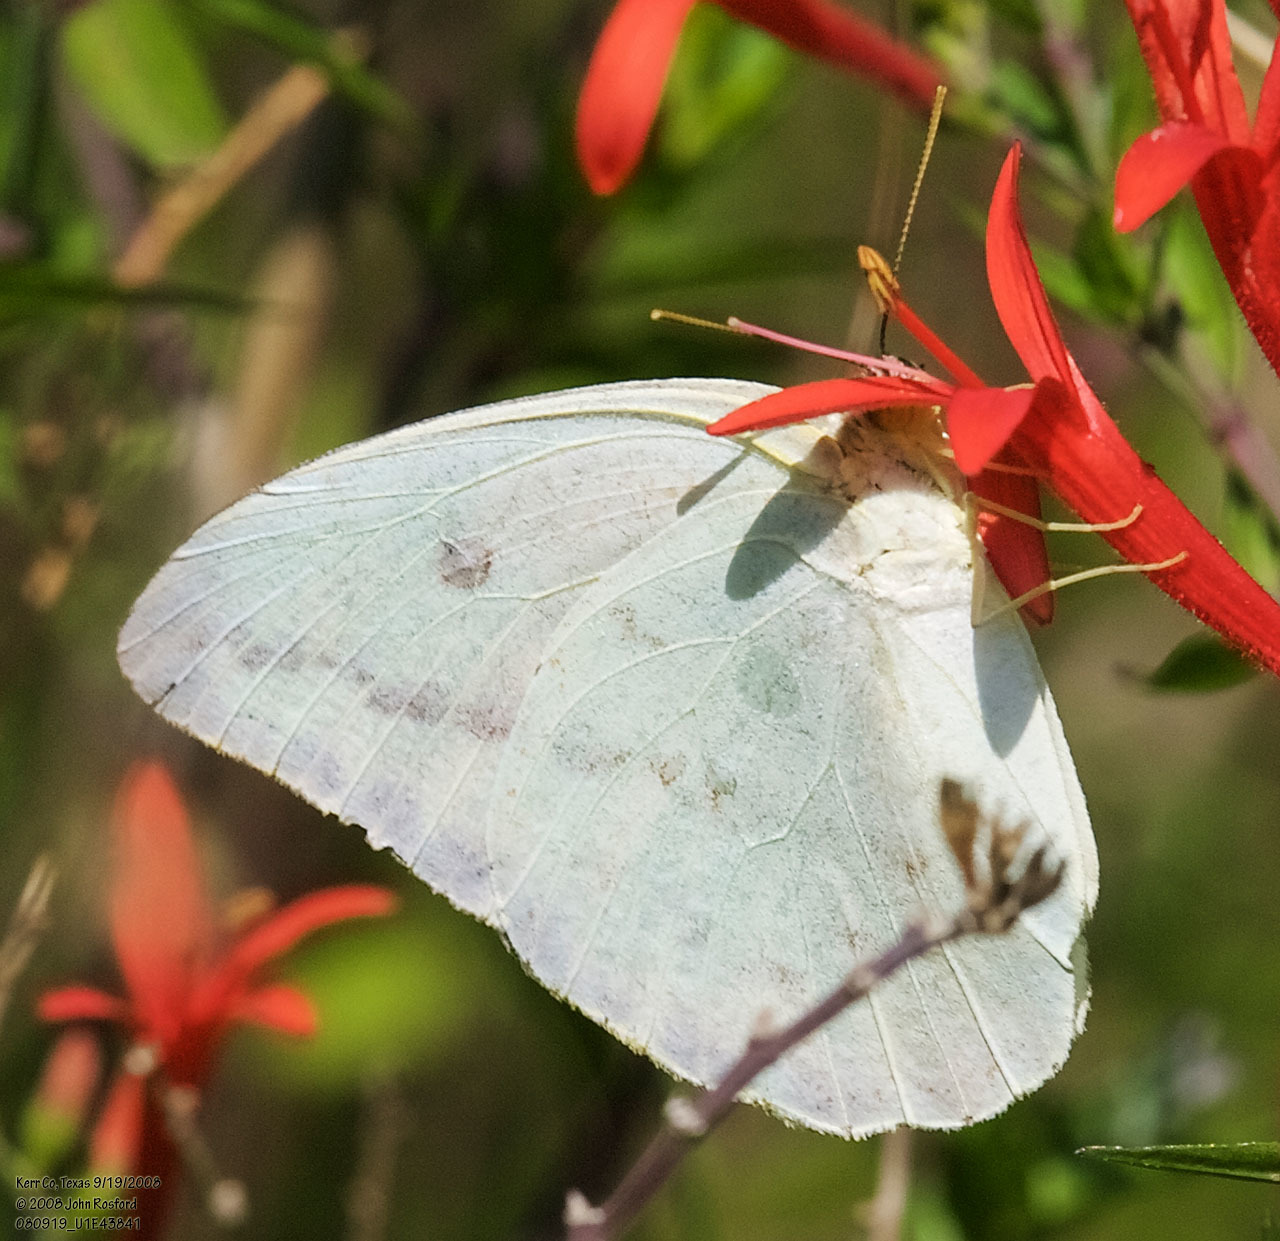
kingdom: Animalia
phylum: Arthropoda
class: Insecta
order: Lepidoptera
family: Pieridae
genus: Phoebis
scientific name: Phoebis agarithe
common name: Large orange sulphur
